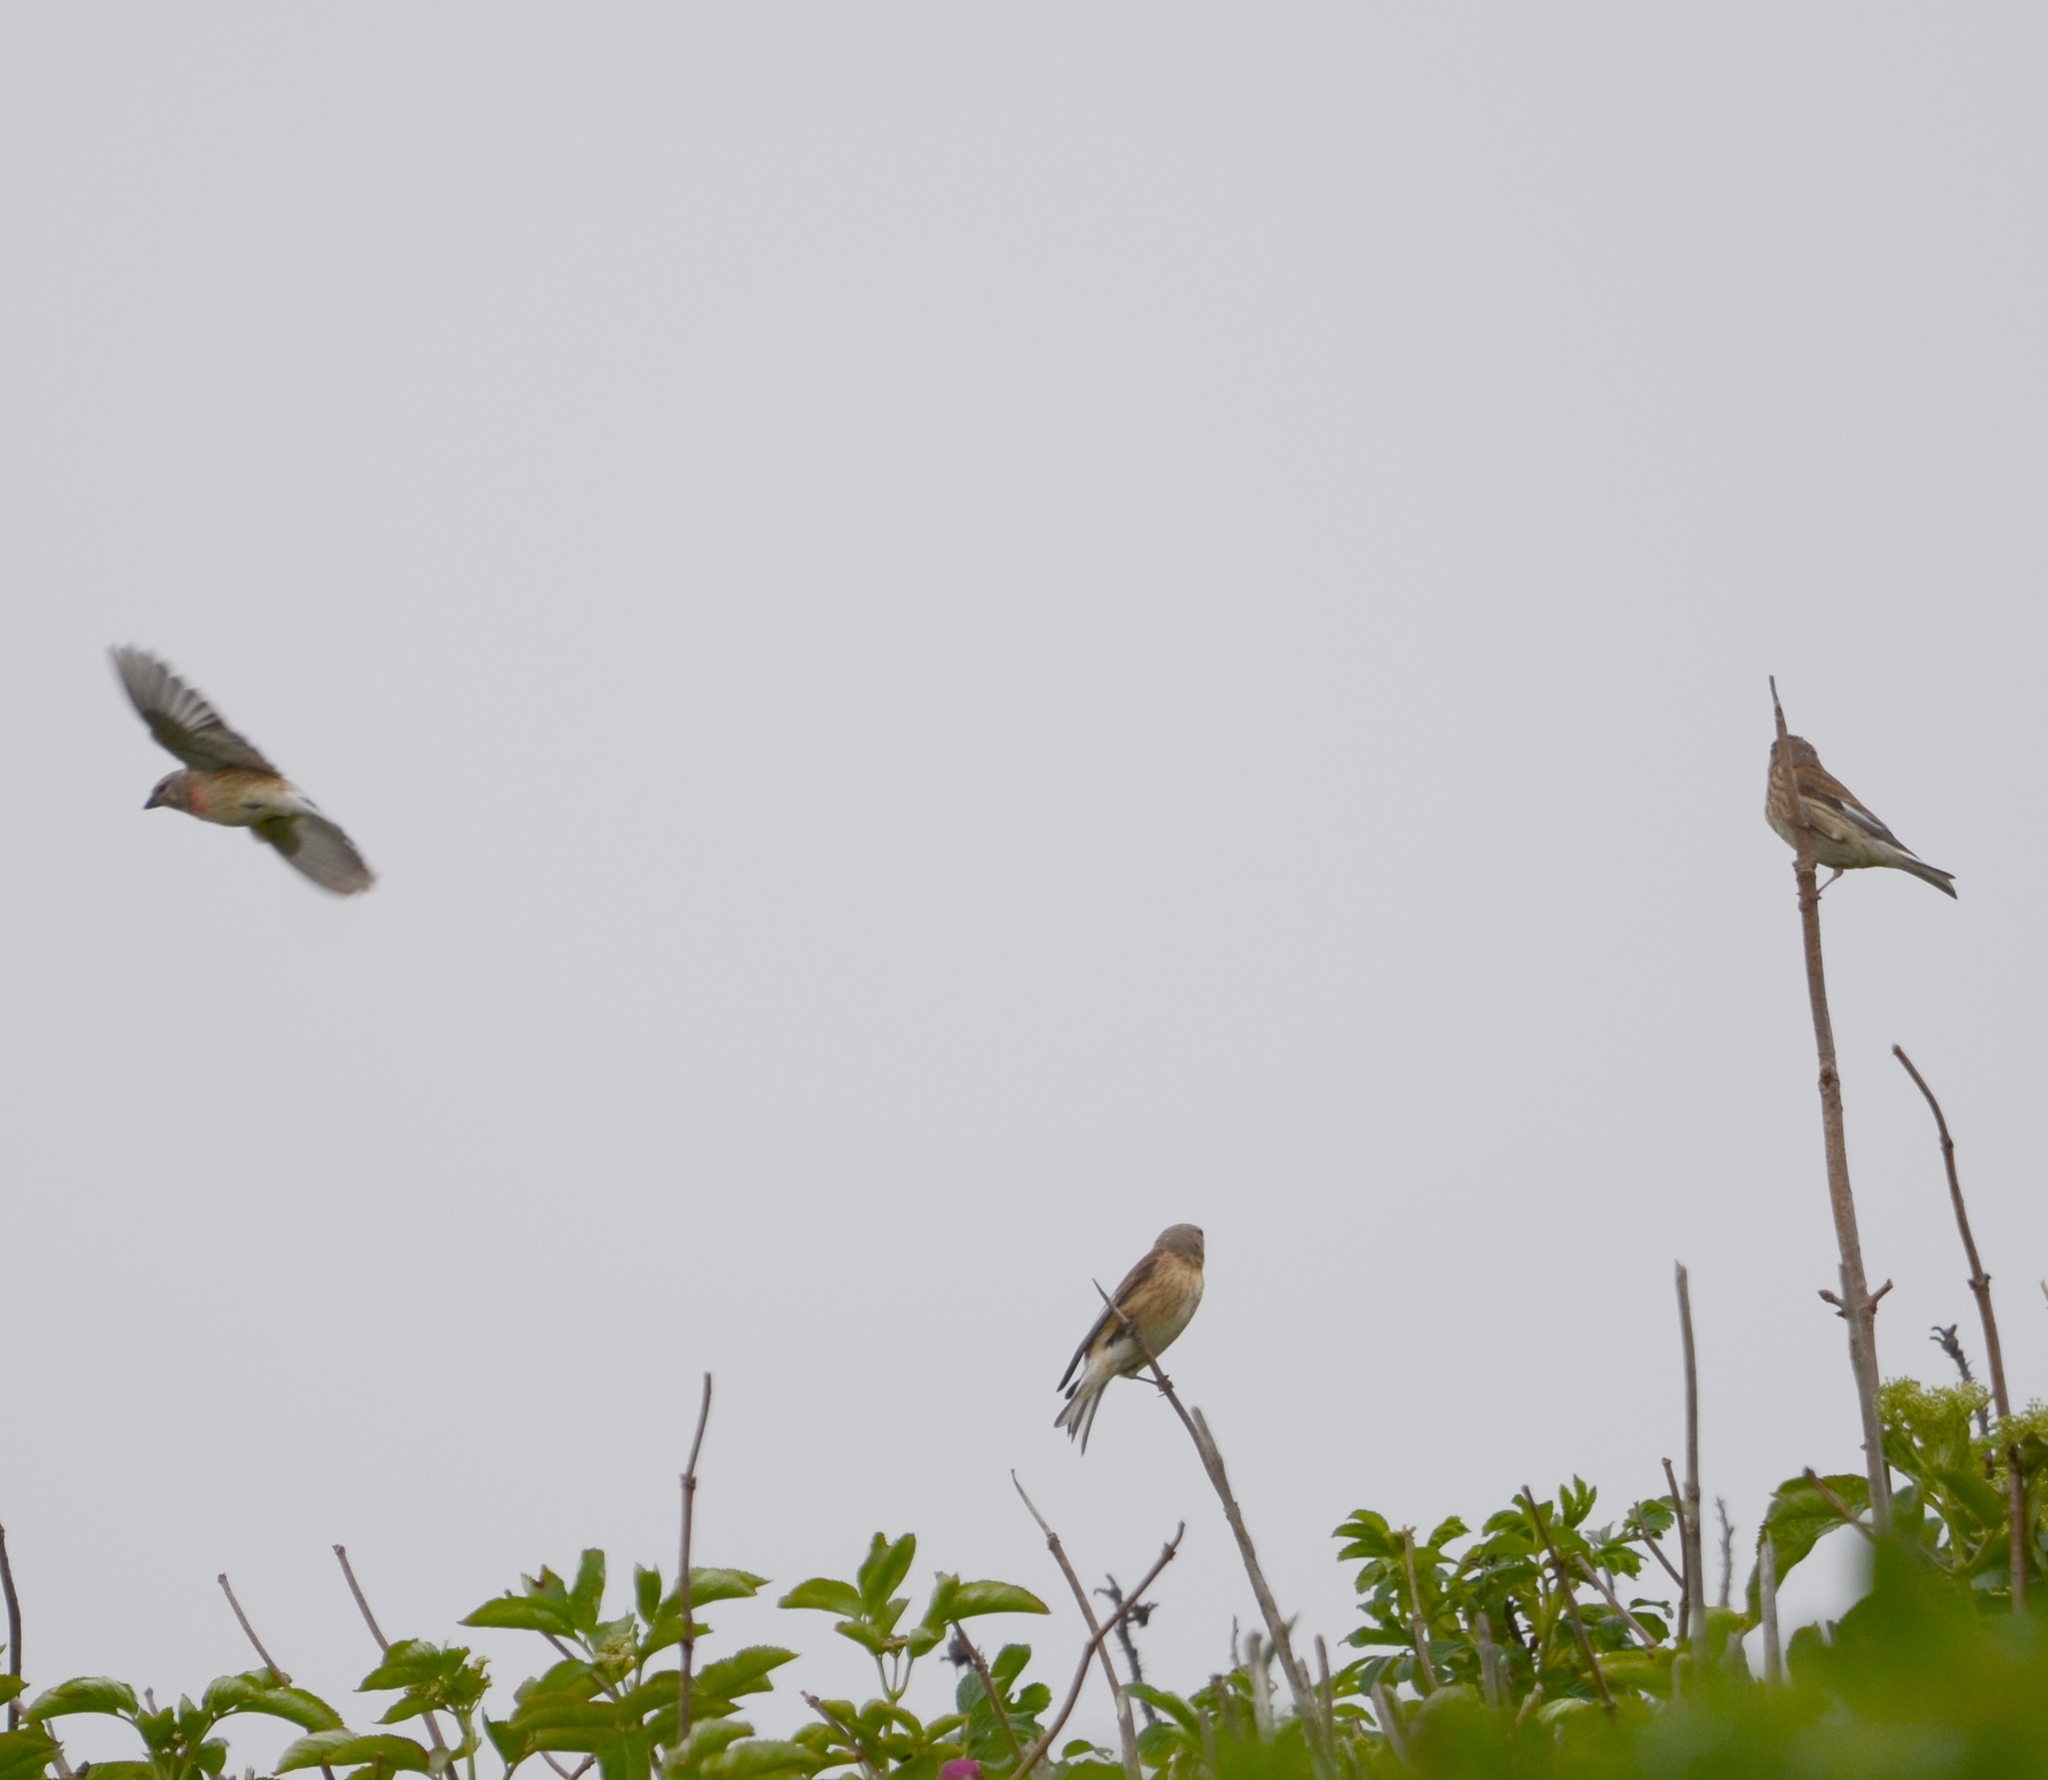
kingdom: Animalia
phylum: Chordata
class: Aves
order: Passeriformes
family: Fringillidae
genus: Linaria
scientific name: Linaria cannabina
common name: Common linnet
